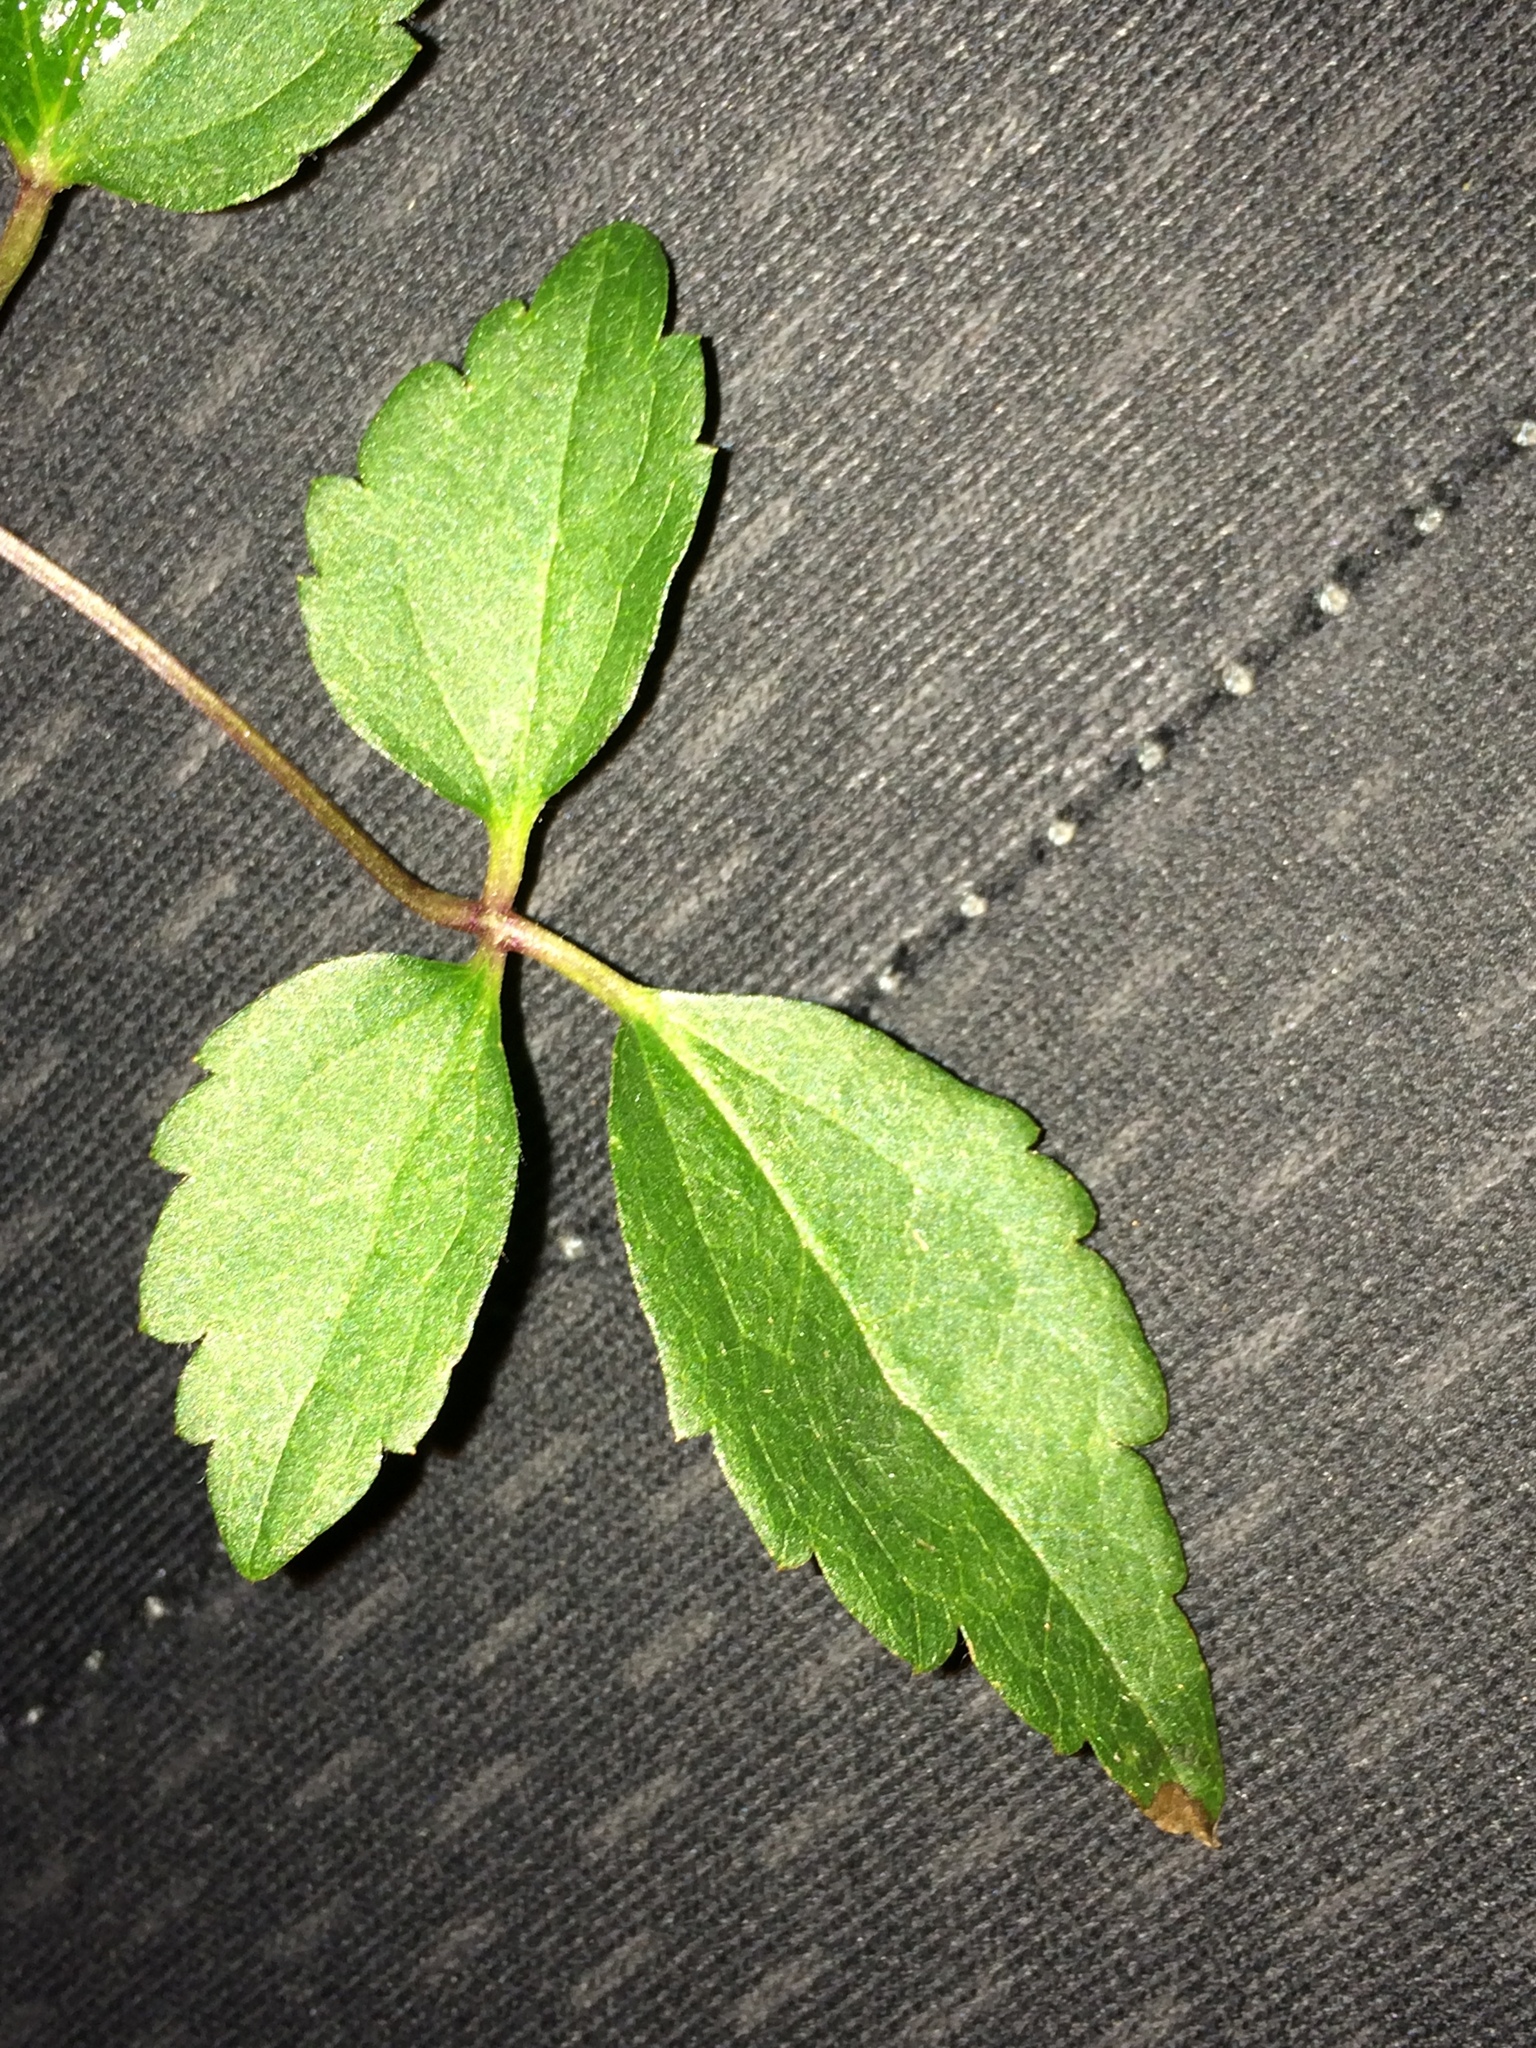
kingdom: Plantae
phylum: Tracheophyta
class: Magnoliopsida
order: Ranunculales
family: Ranunculaceae
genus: Clematis
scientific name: Clematis vitalba
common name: Evergreen clematis
